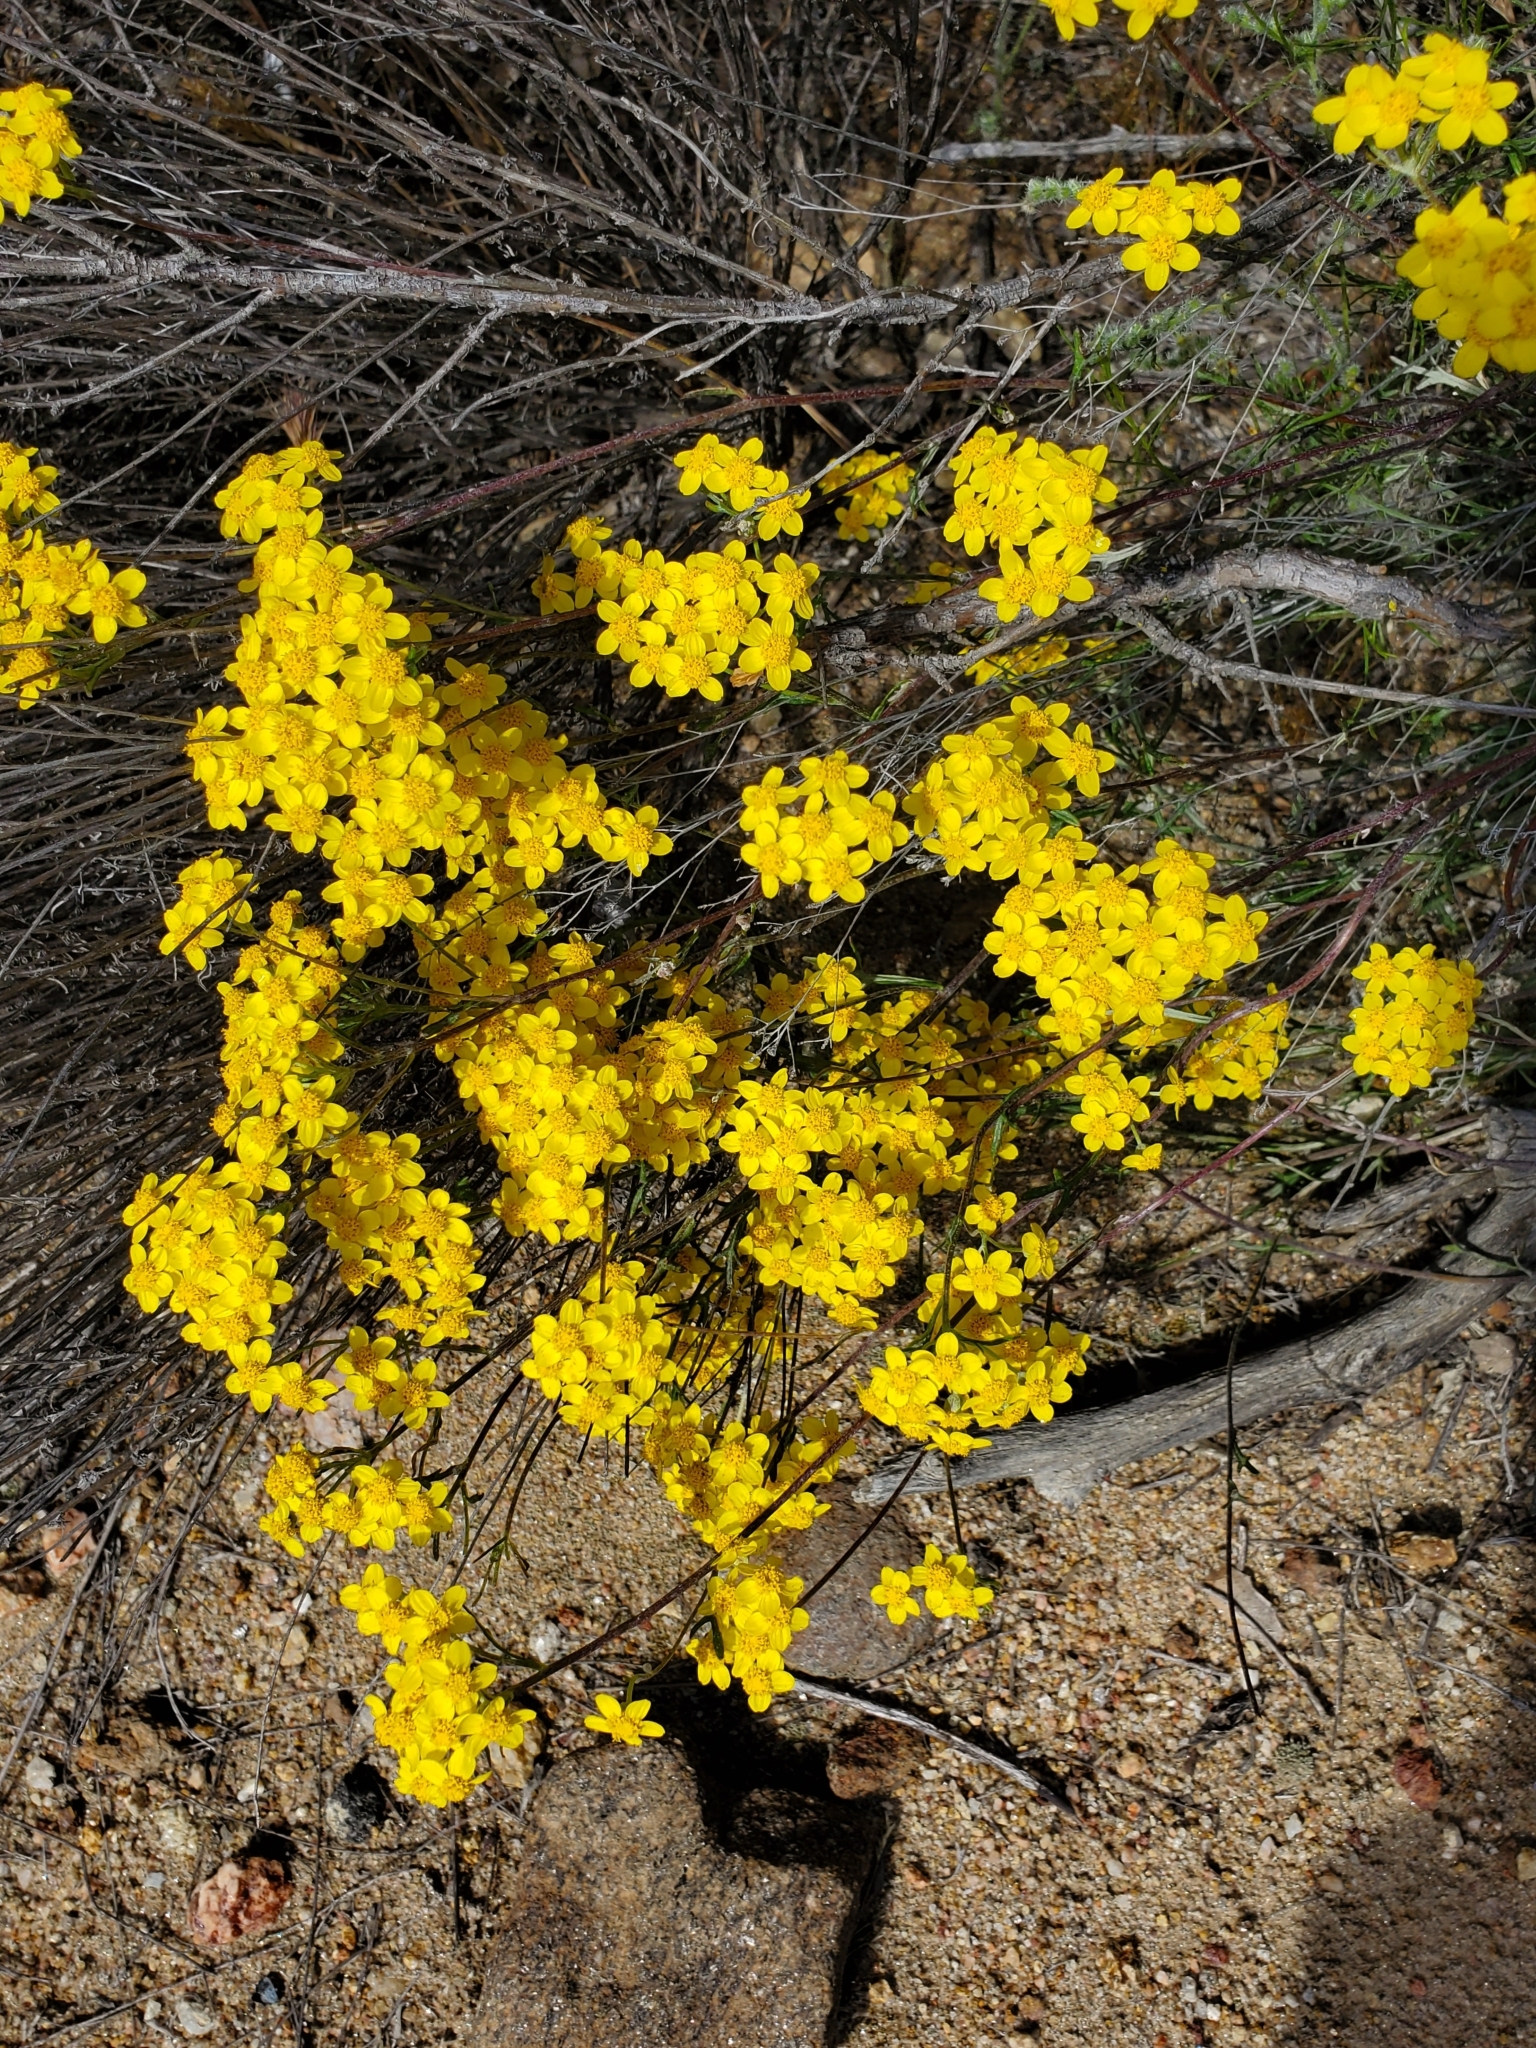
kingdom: Plantae
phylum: Tracheophyta
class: Magnoliopsida
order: Asterales
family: Asteraceae
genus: Eriophyllum
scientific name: Eriophyllum confertiflorum
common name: Golden-yarrow
